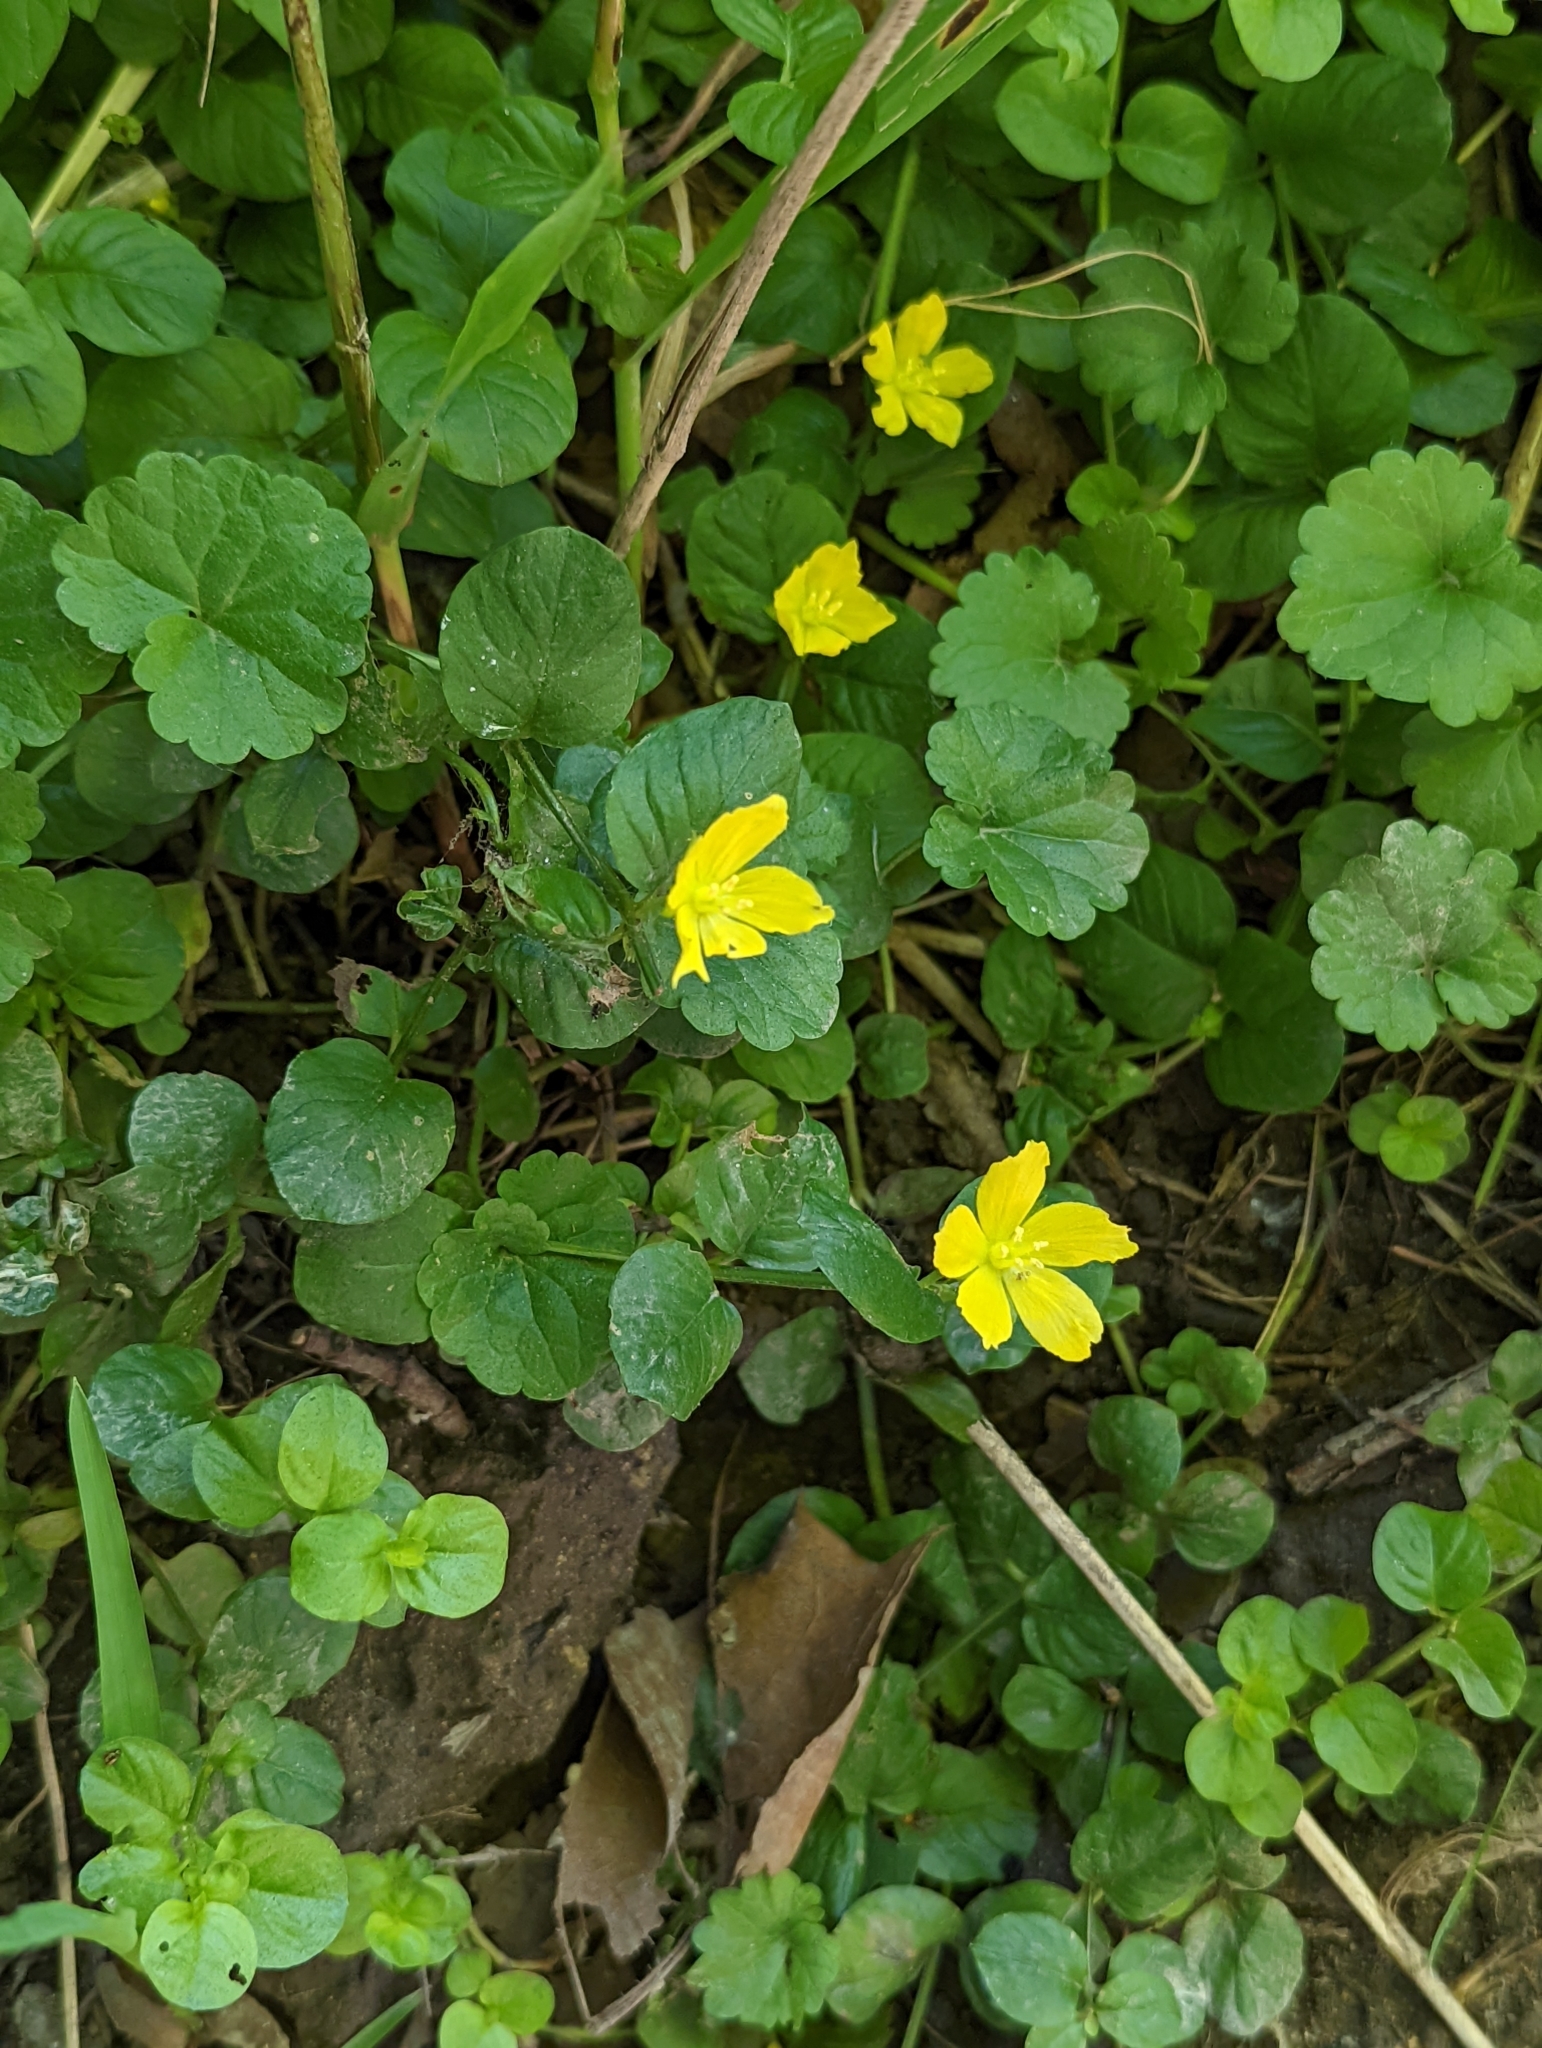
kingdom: Plantae
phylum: Tracheophyta
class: Magnoliopsida
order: Ericales
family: Primulaceae
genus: Lysimachia
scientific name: Lysimachia nummularia
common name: Moneywort
